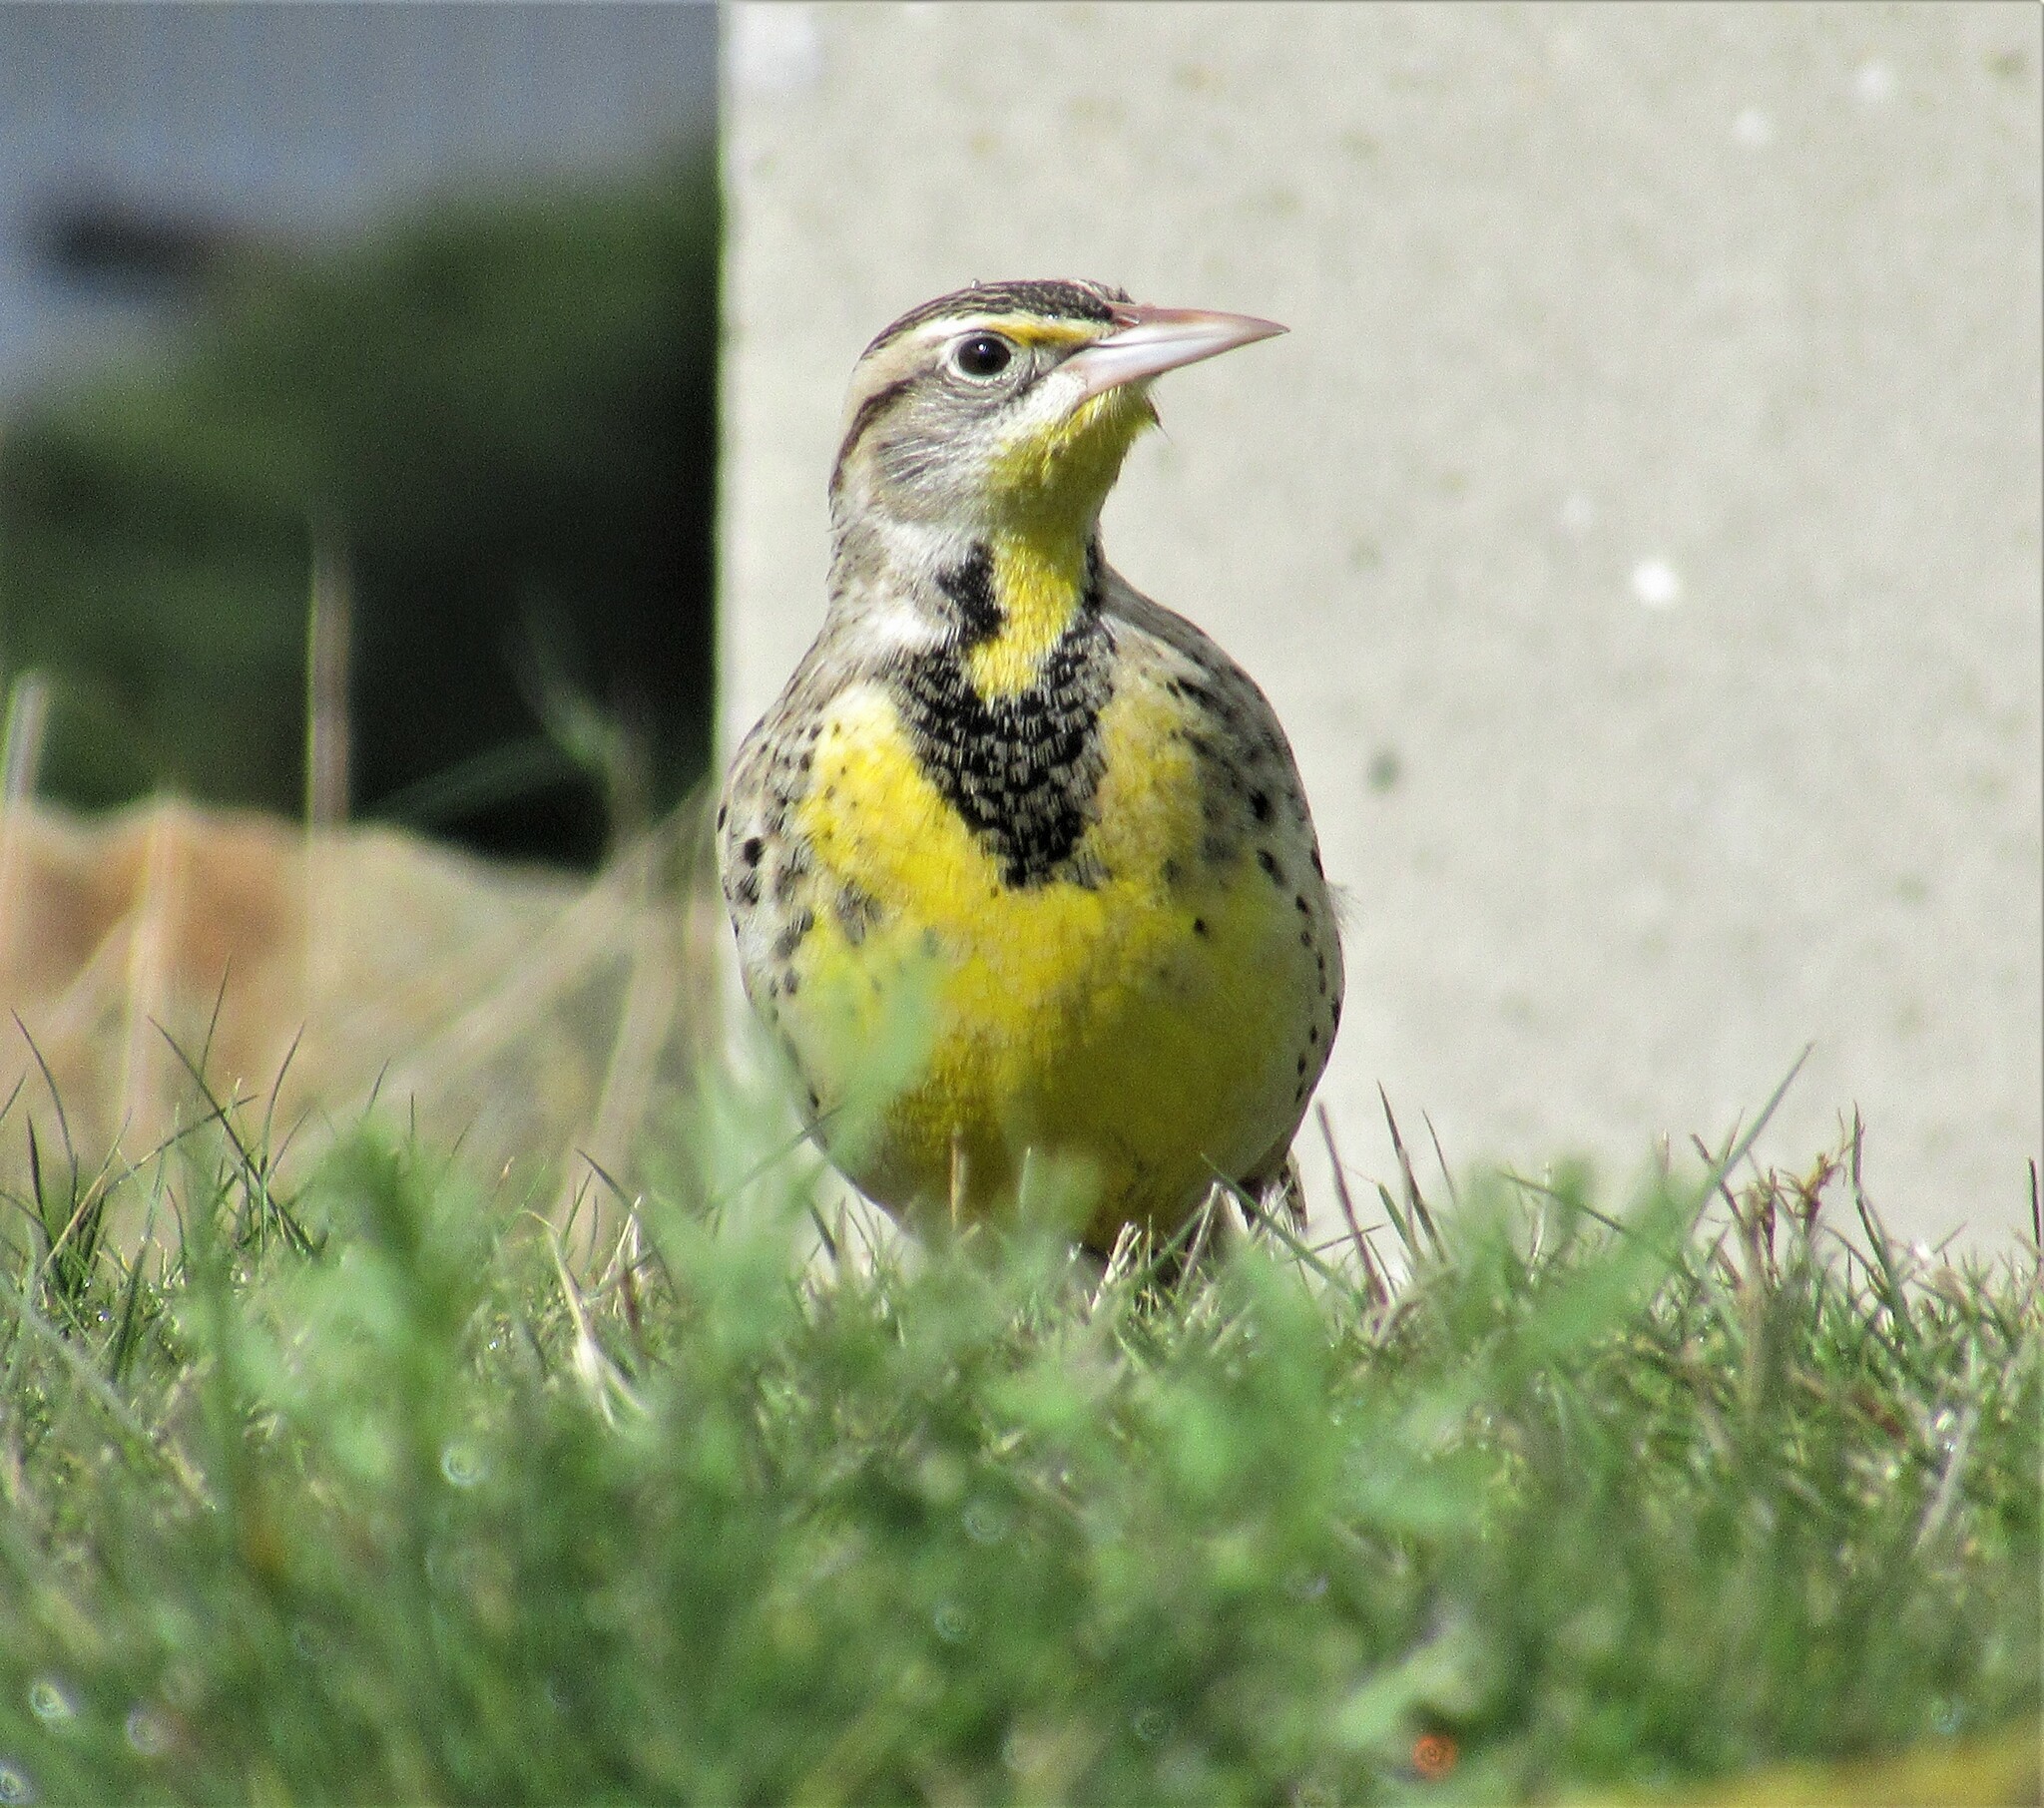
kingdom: Animalia
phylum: Chordata
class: Aves
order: Passeriformes
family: Icteridae
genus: Sturnella
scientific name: Sturnella neglecta
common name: Western meadowlark
